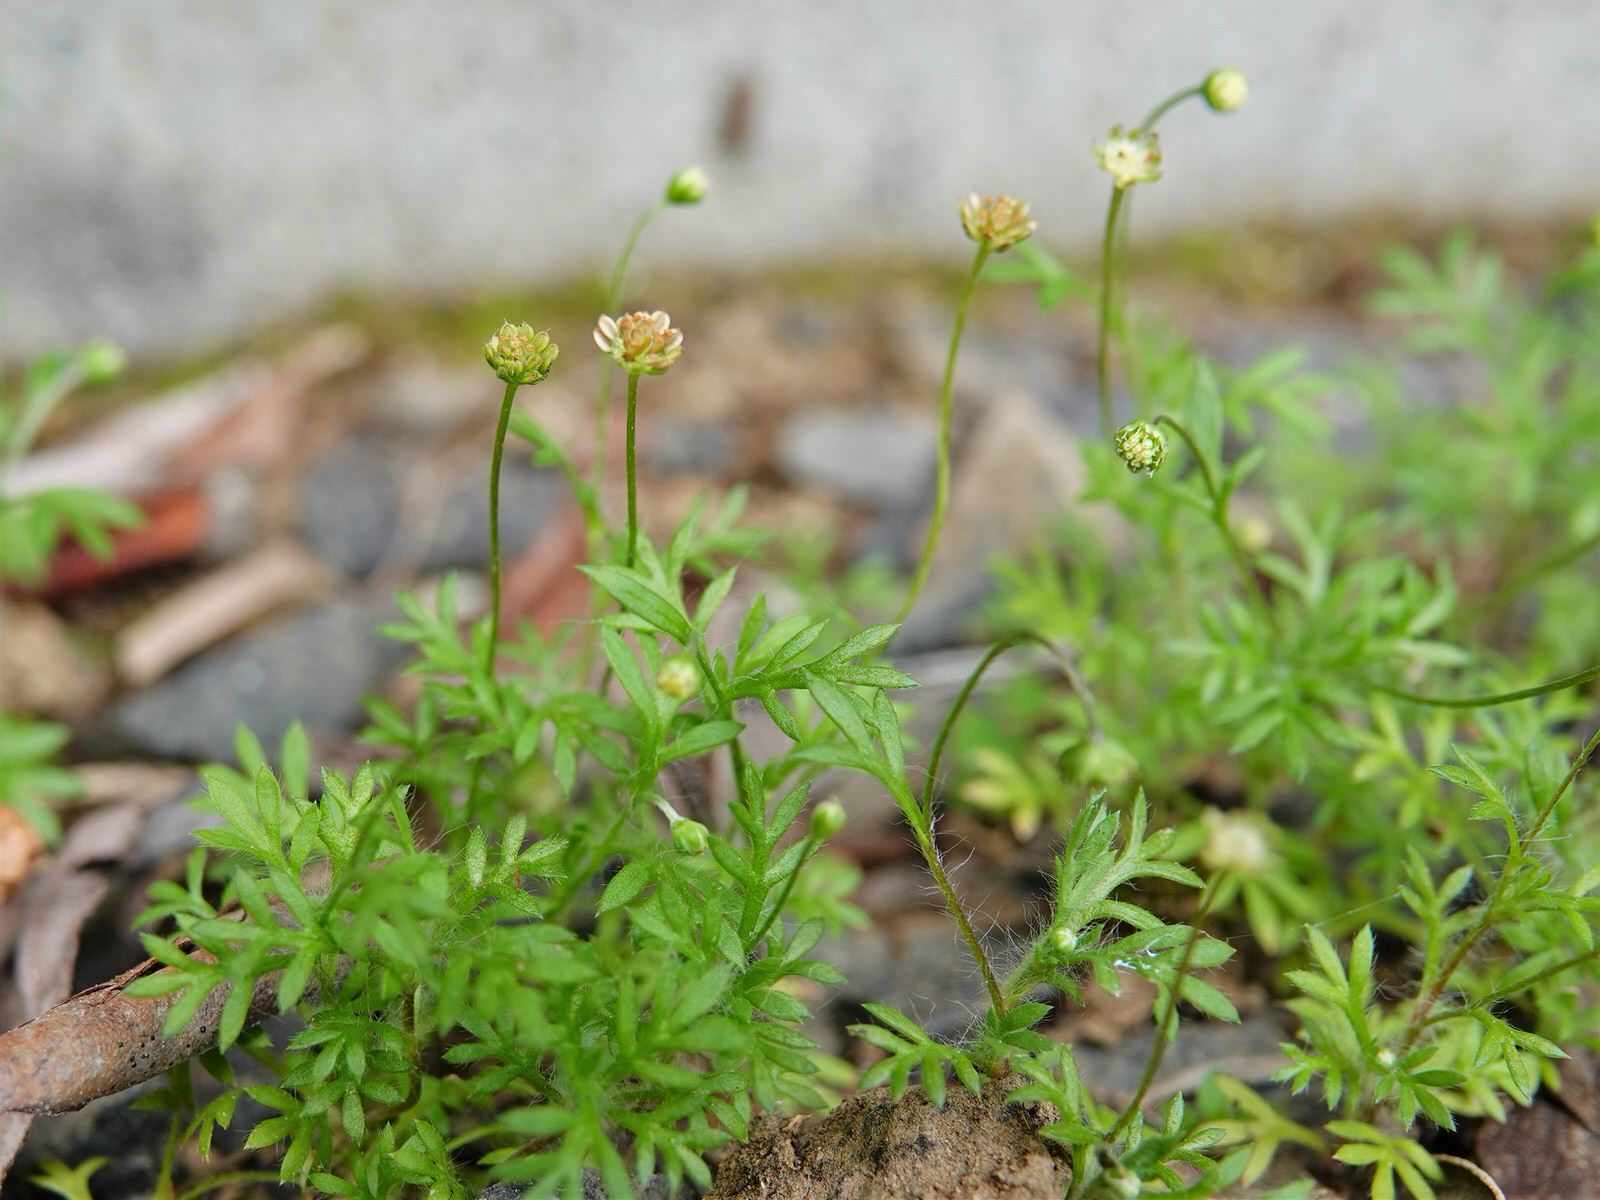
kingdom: Plantae
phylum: Tracheophyta
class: Magnoliopsida
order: Asterales
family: Asteraceae
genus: Cotula
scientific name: Cotula australis
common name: Australian waterbuttons
